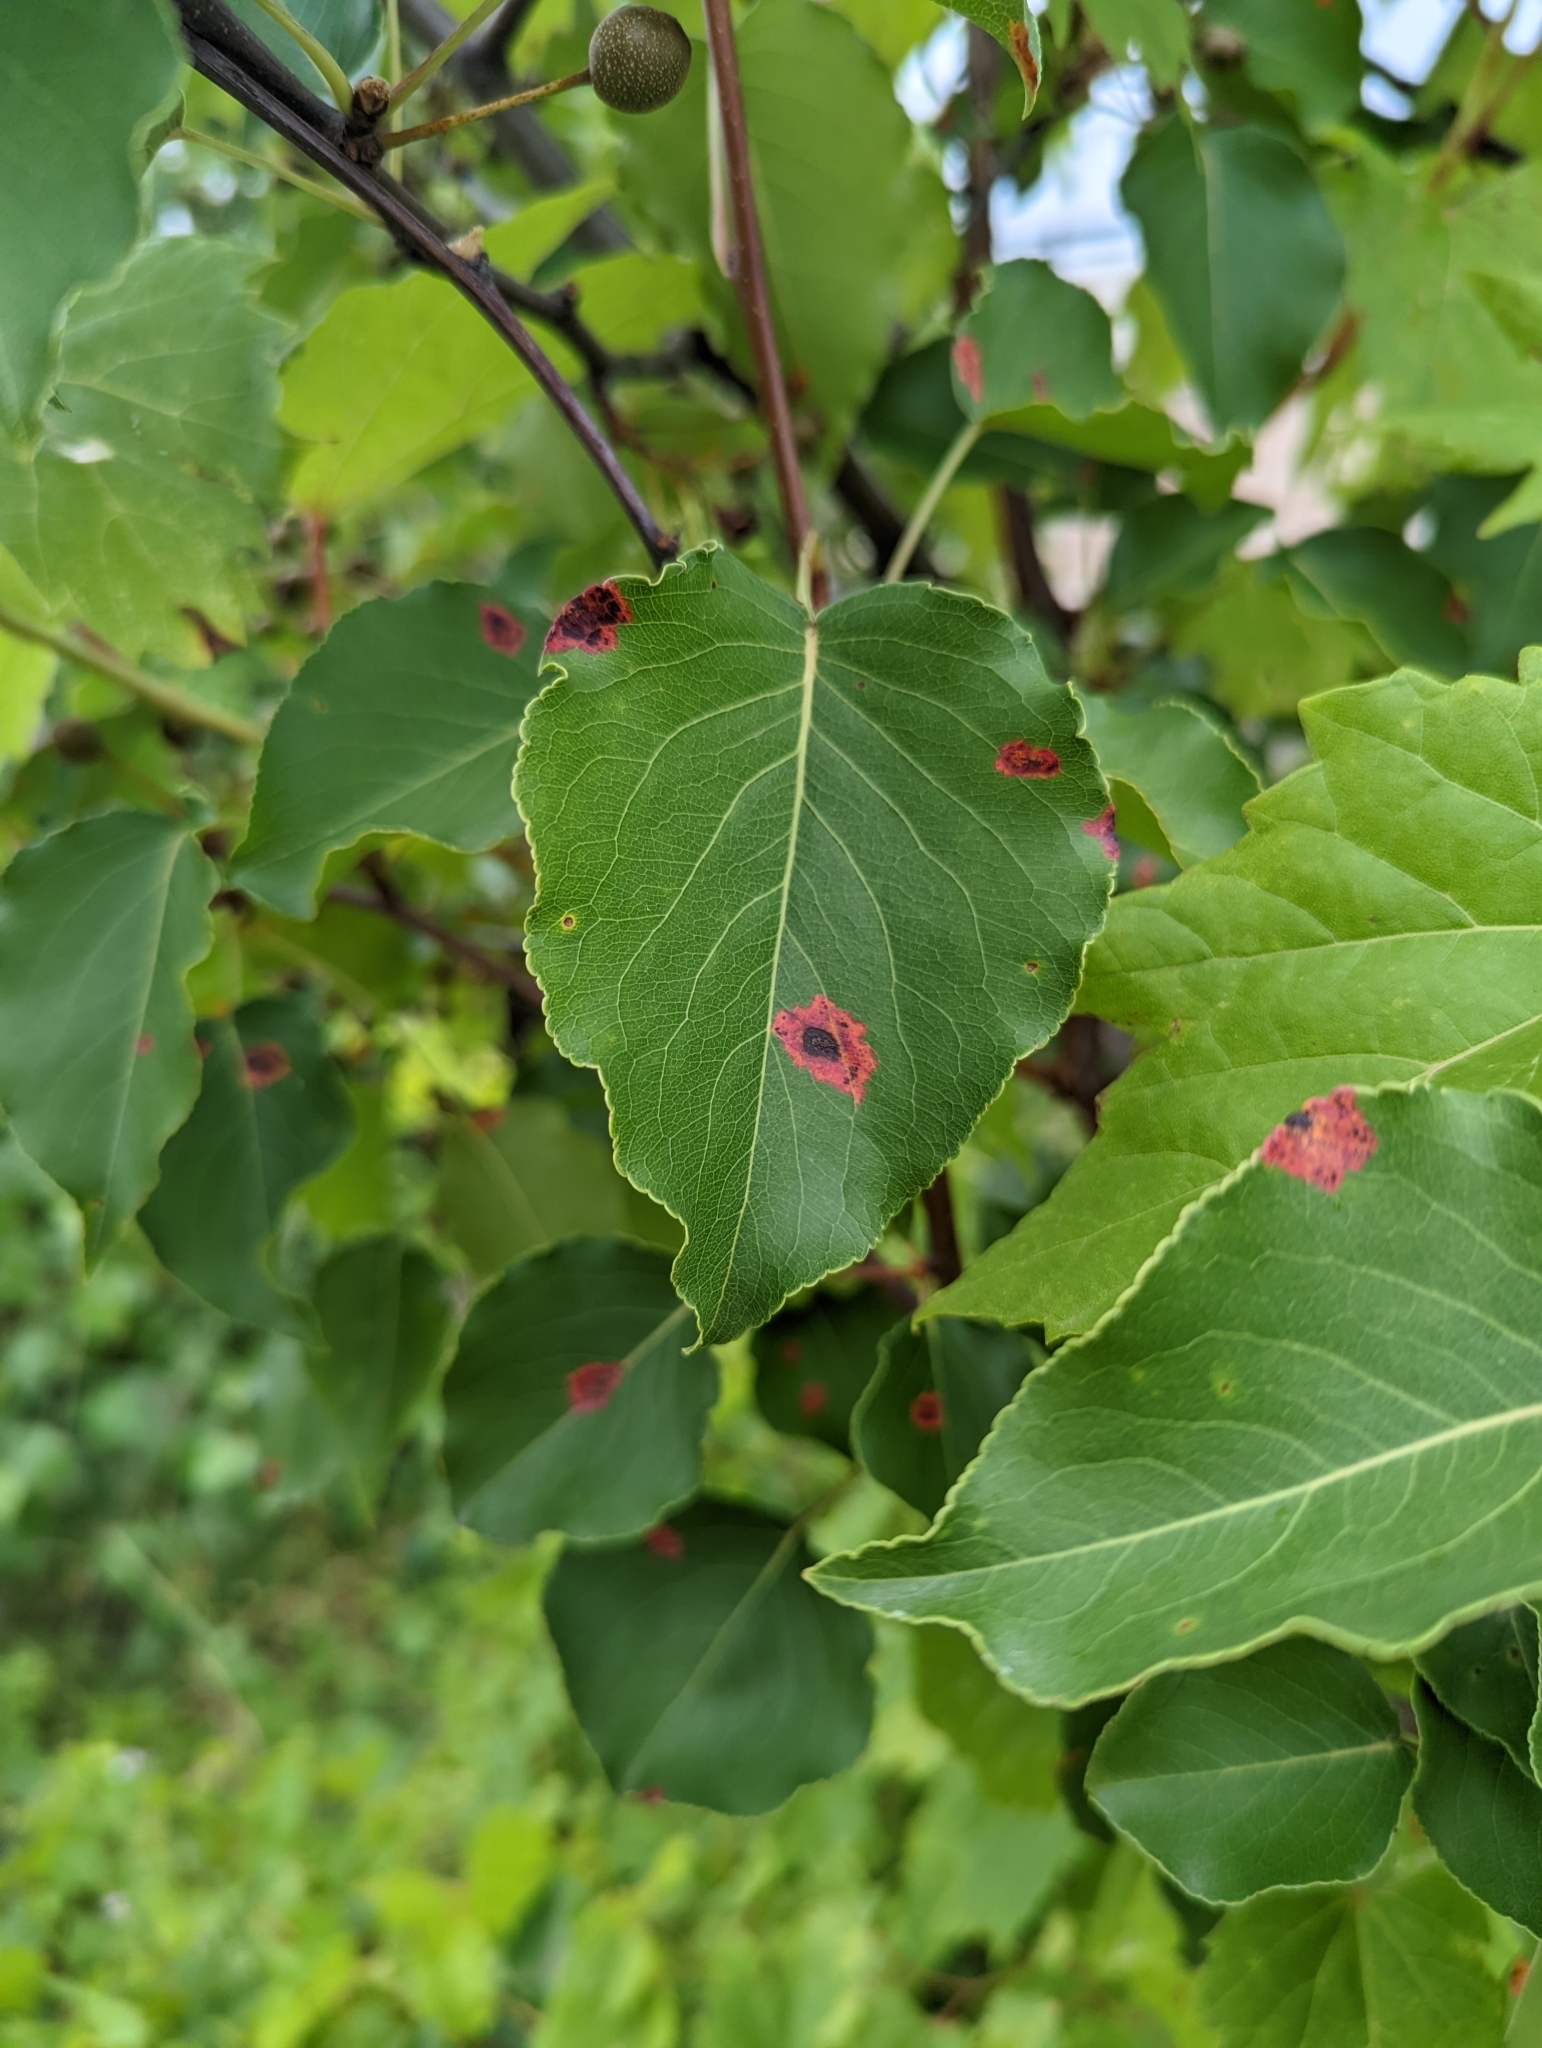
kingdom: Fungi
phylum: Basidiomycota
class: Pucciniomycetes
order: Pucciniales
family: Gymnosporangiaceae
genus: Gymnosporangium
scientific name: Gymnosporangium sabinae
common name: Pear trellis rust fungus
